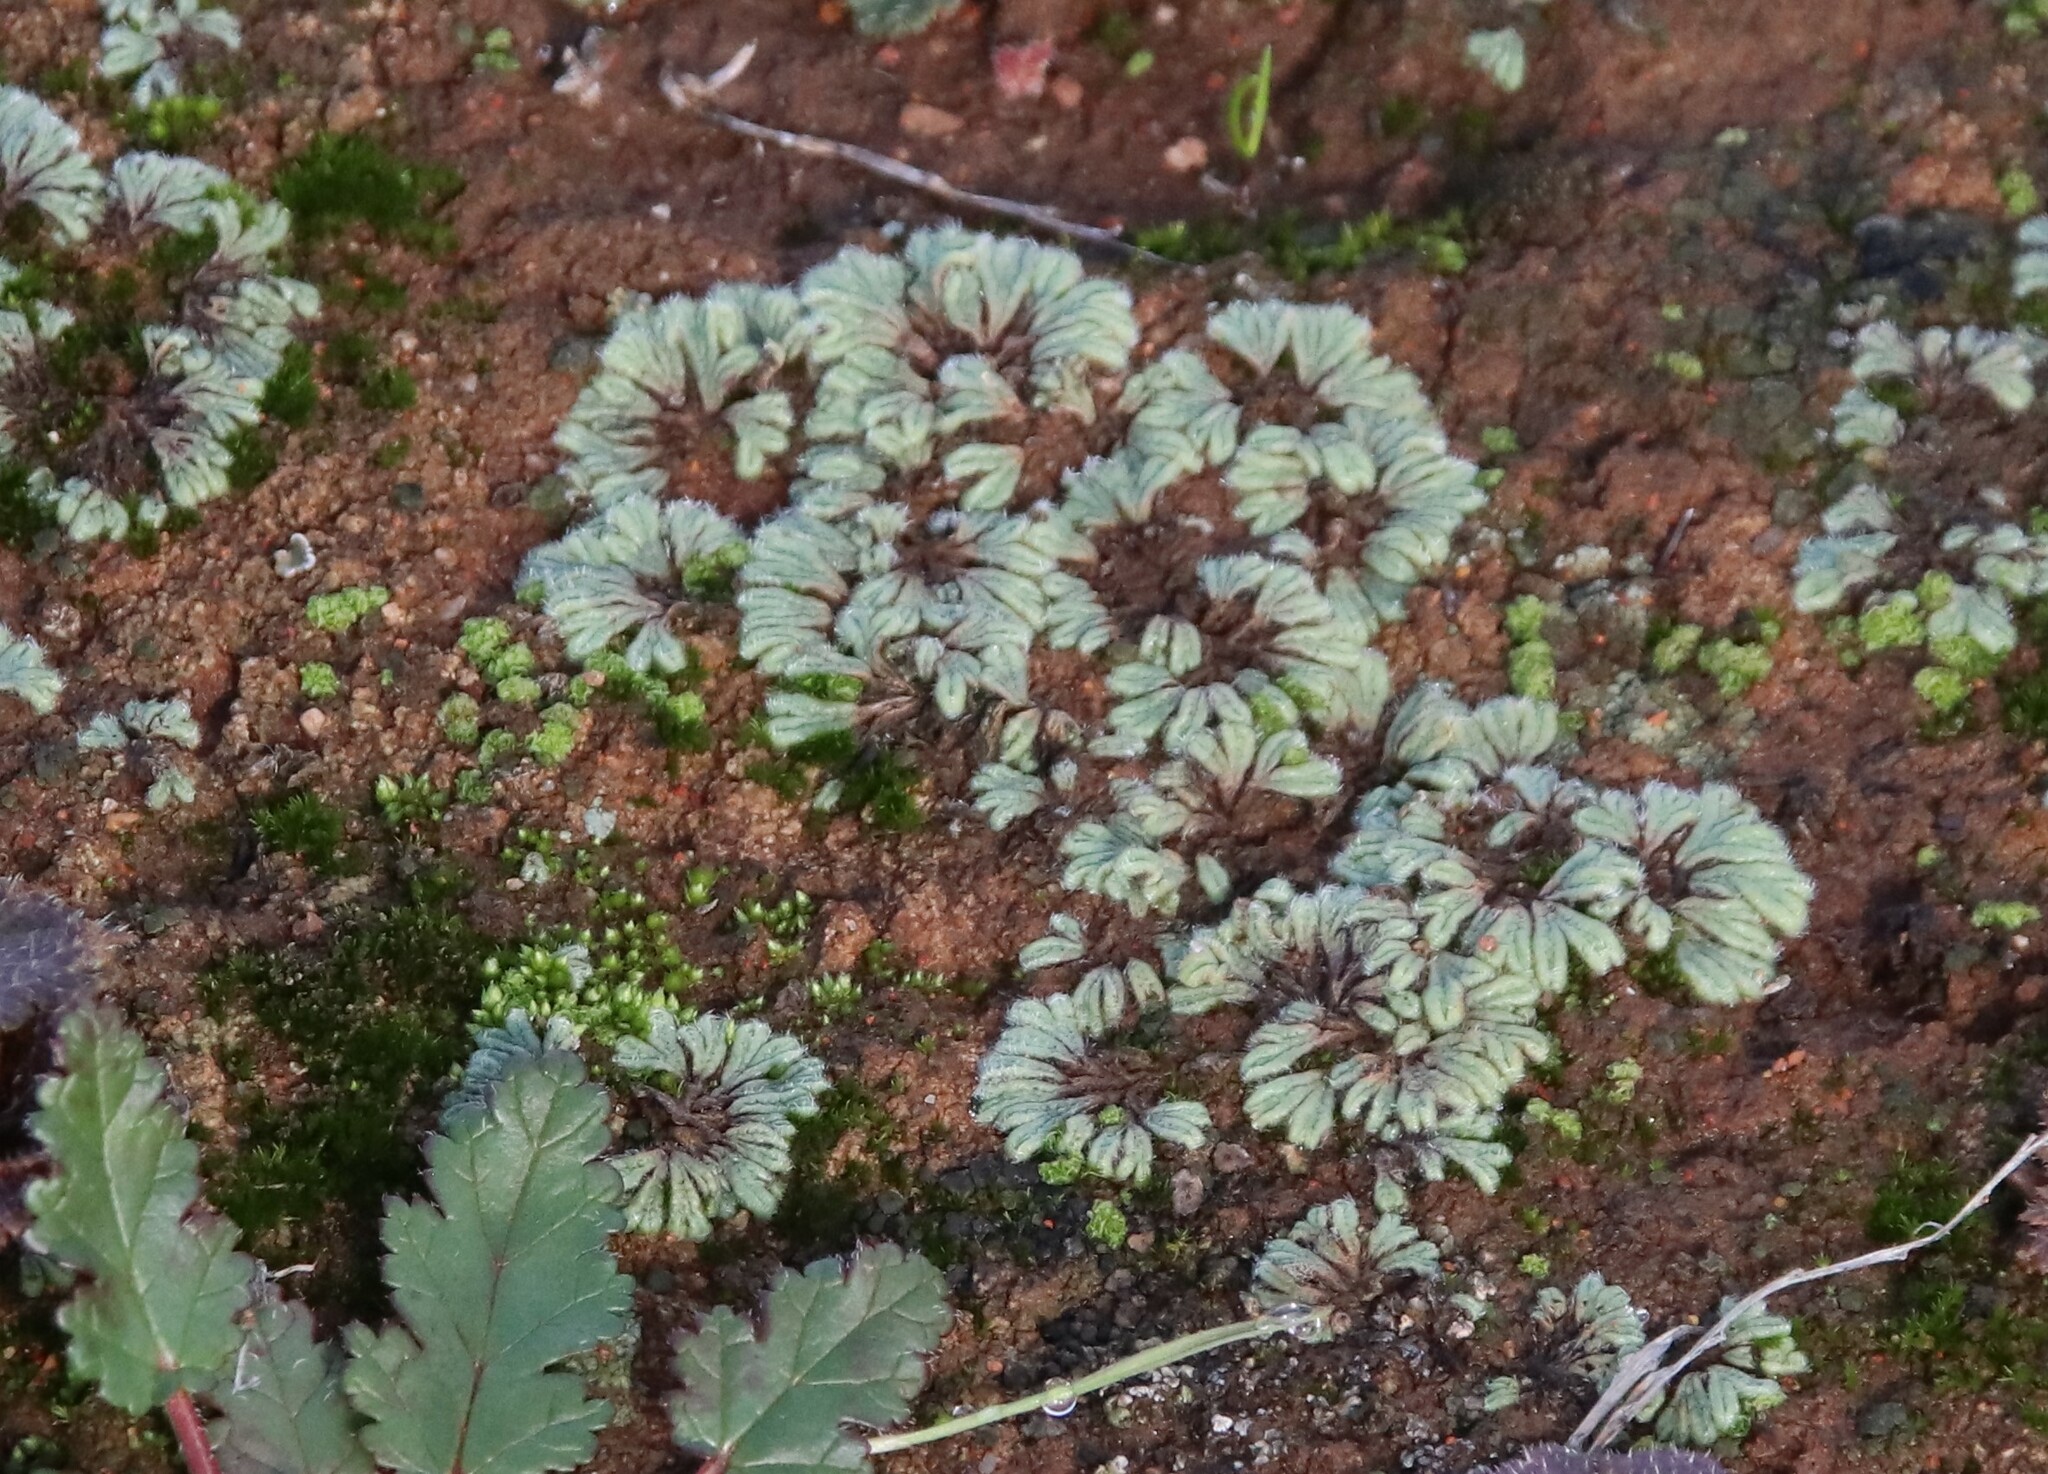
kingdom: Plantae
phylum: Marchantiophyta
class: Marchantiopsida
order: Marchantiales
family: Ricciaceae
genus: Riccia
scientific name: Riccia trichocarpa
